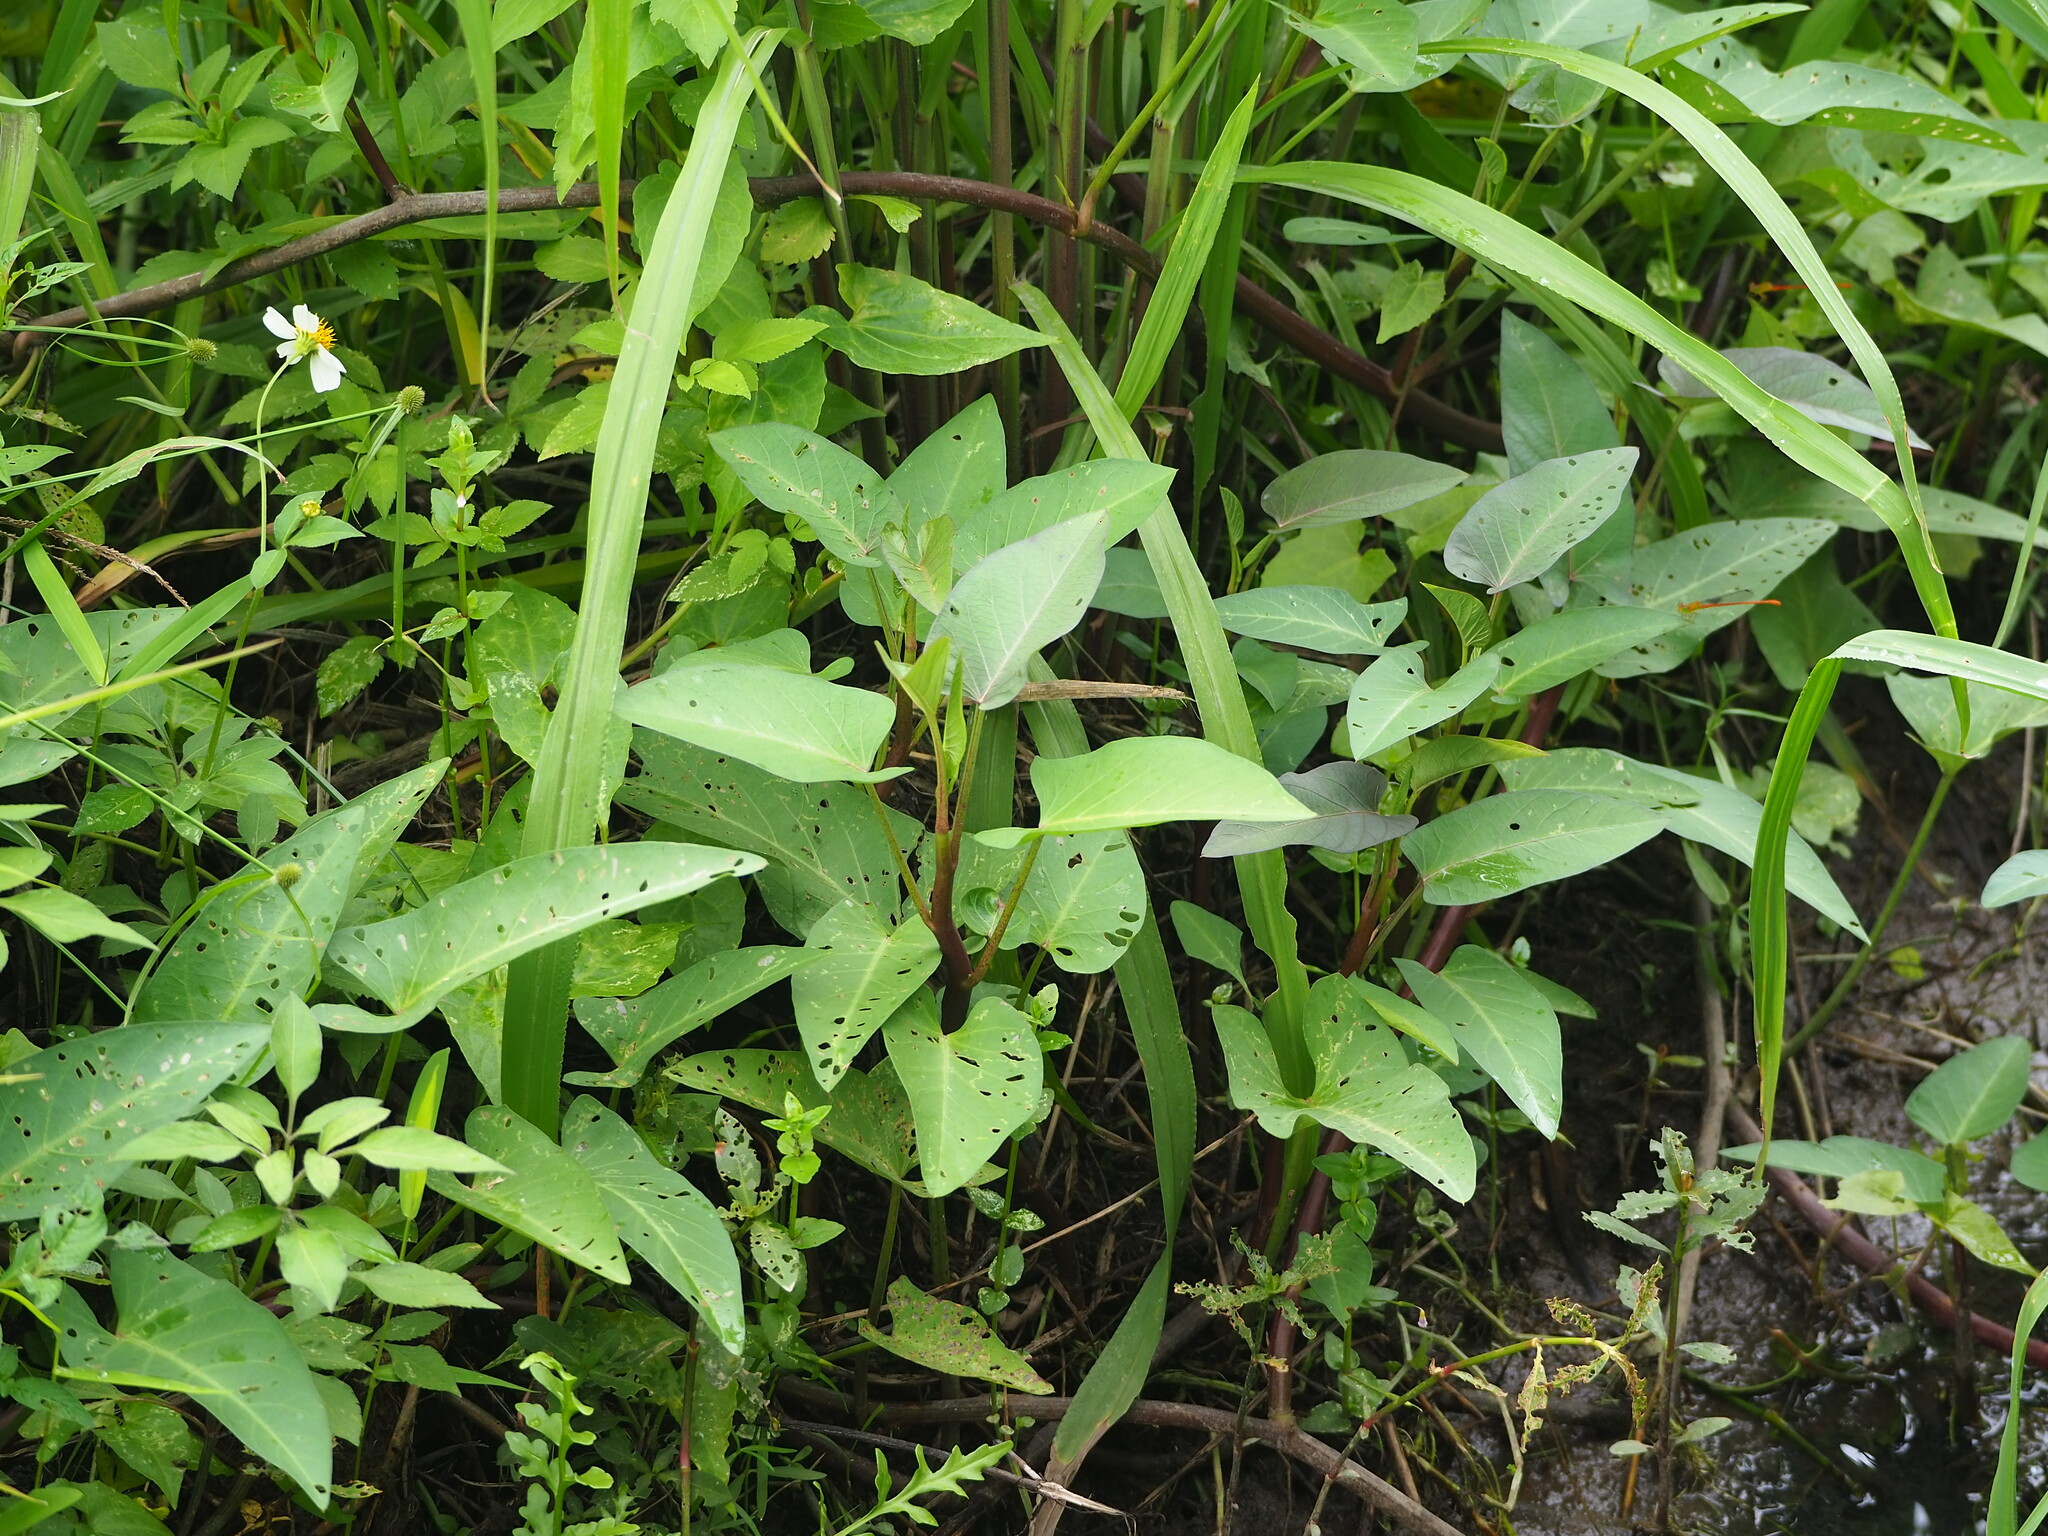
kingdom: Plantae
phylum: Tracheophyta
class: Magnoliopsida
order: Solanales
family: Convolvulaceae
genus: Ipomoea
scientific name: Ipomoea aquatica
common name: Swamp morning-glory
